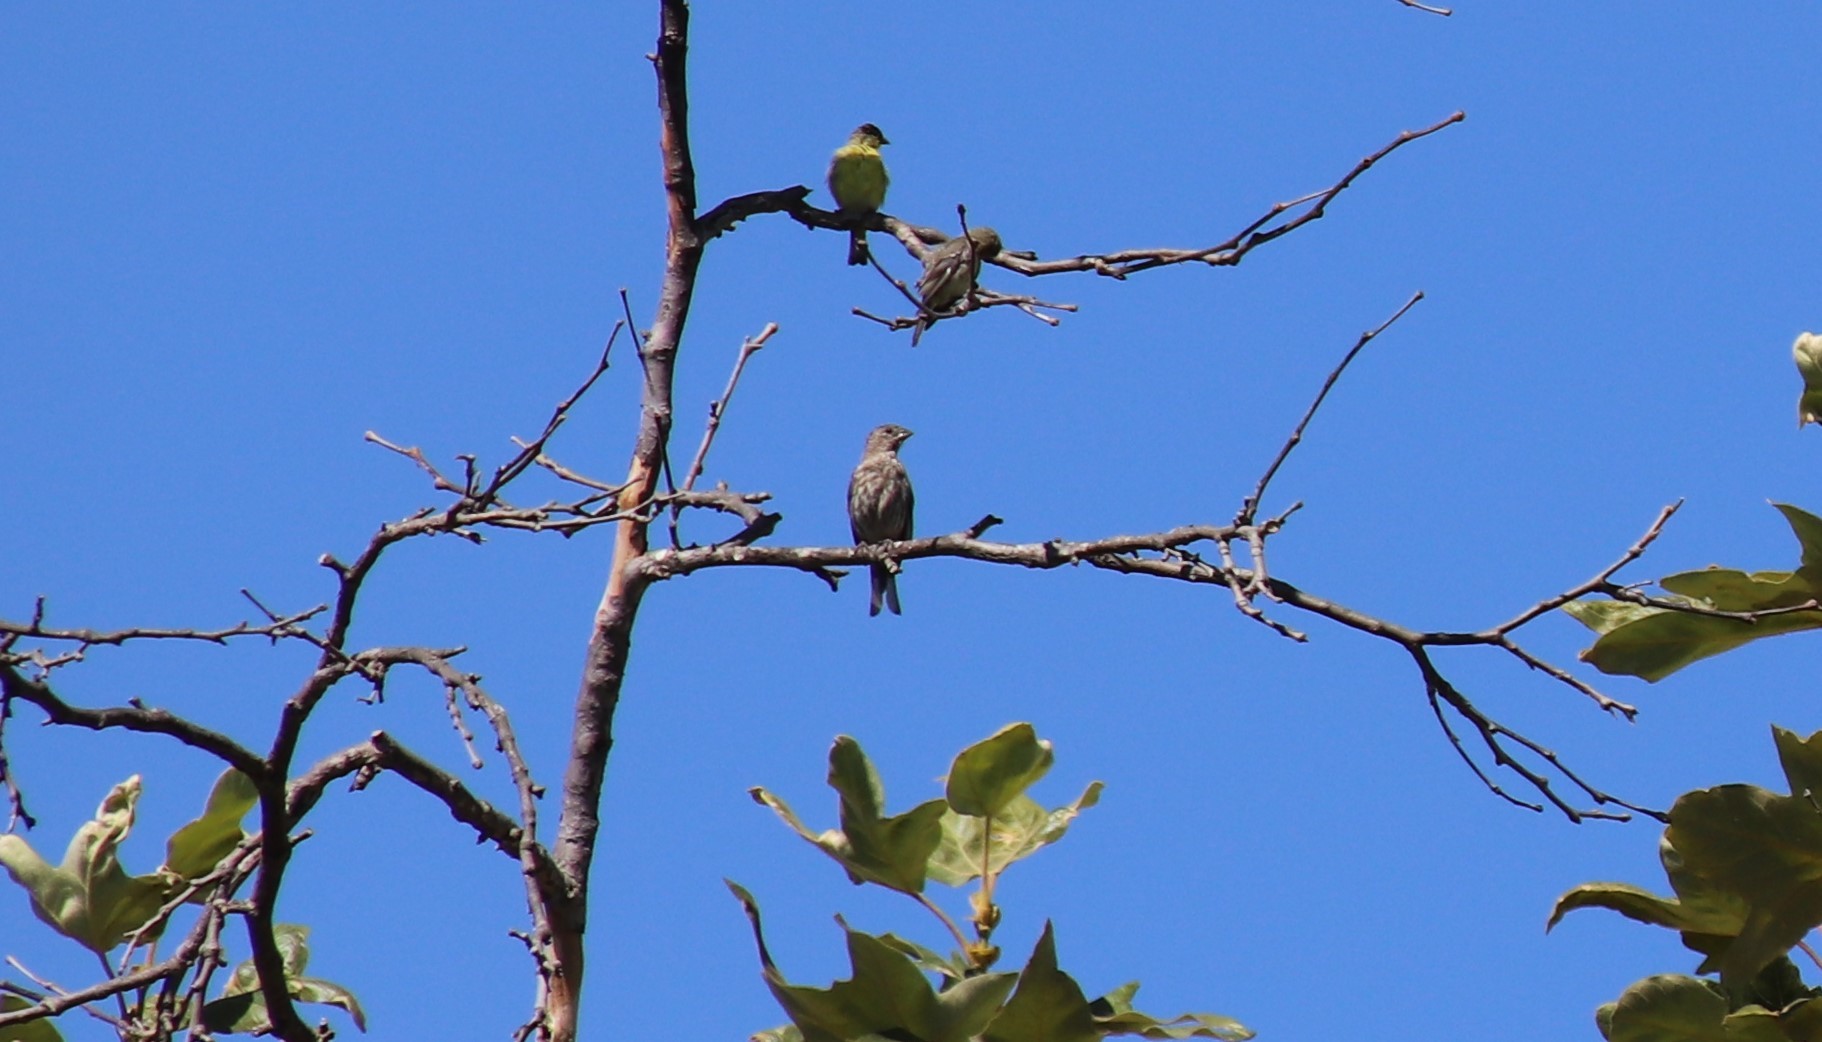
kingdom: Animalia
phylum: Chordata
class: Aves
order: Passeriformes
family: Fringillidae
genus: Haemorhous
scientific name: Haemorhous mexicanus
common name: House finch
